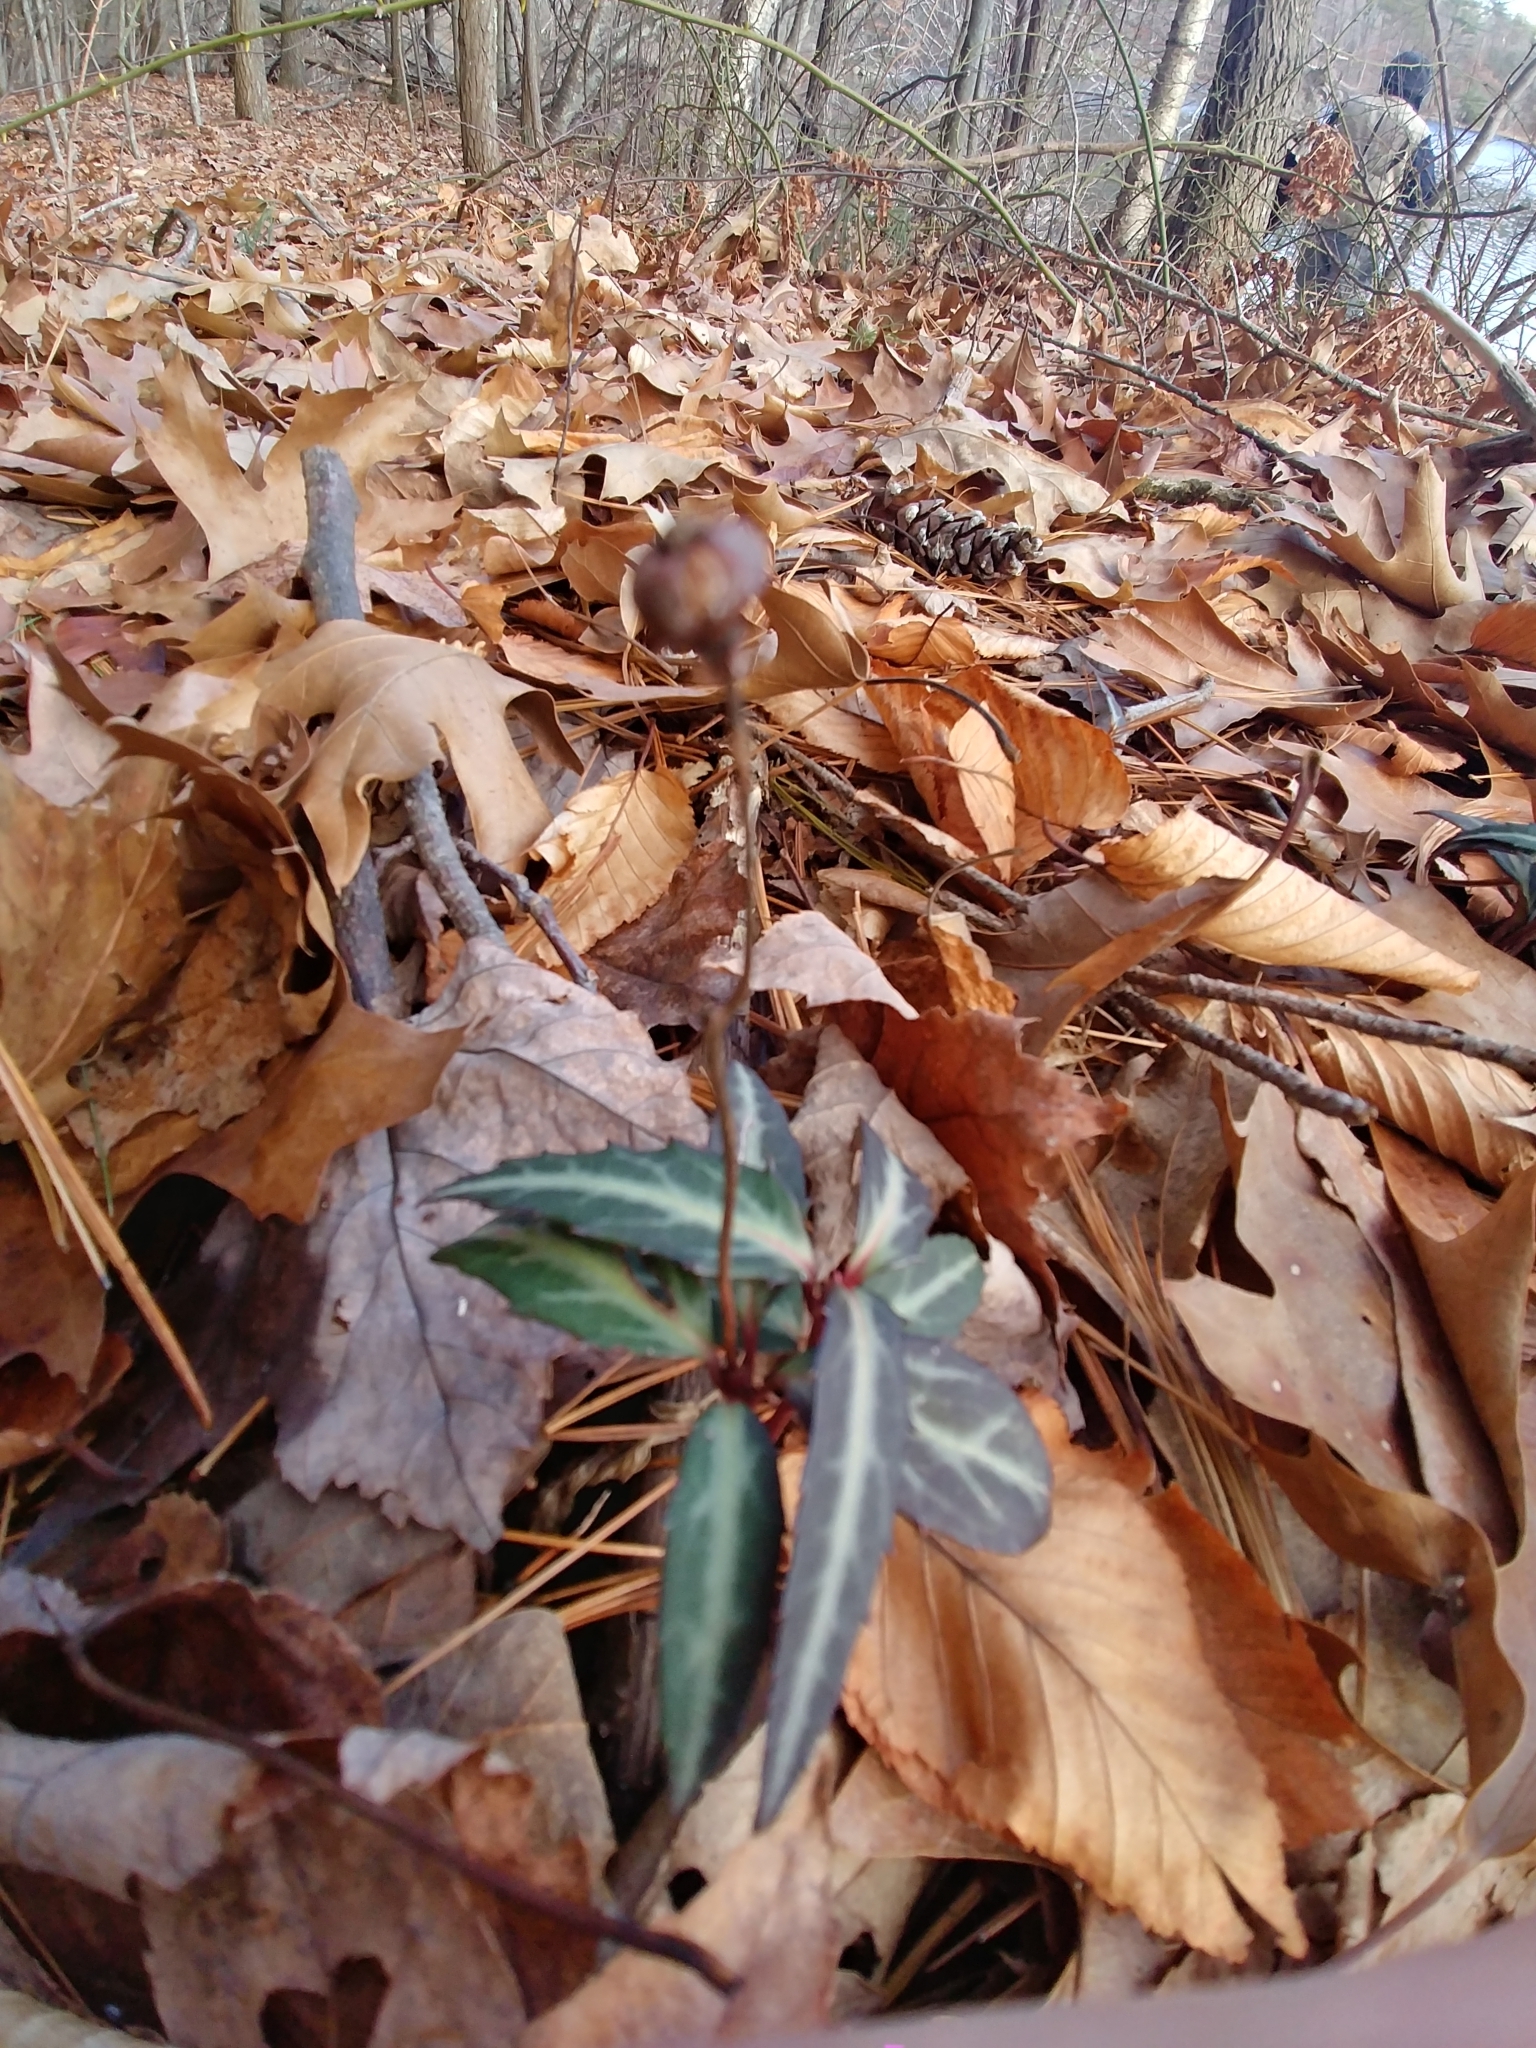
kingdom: Plantae
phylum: Tracheophyta
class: Magnoliopsida
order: Ericales
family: Ericaceae
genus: Chimaphila
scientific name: Chimaphila maculata
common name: Spotted pipsissewa
